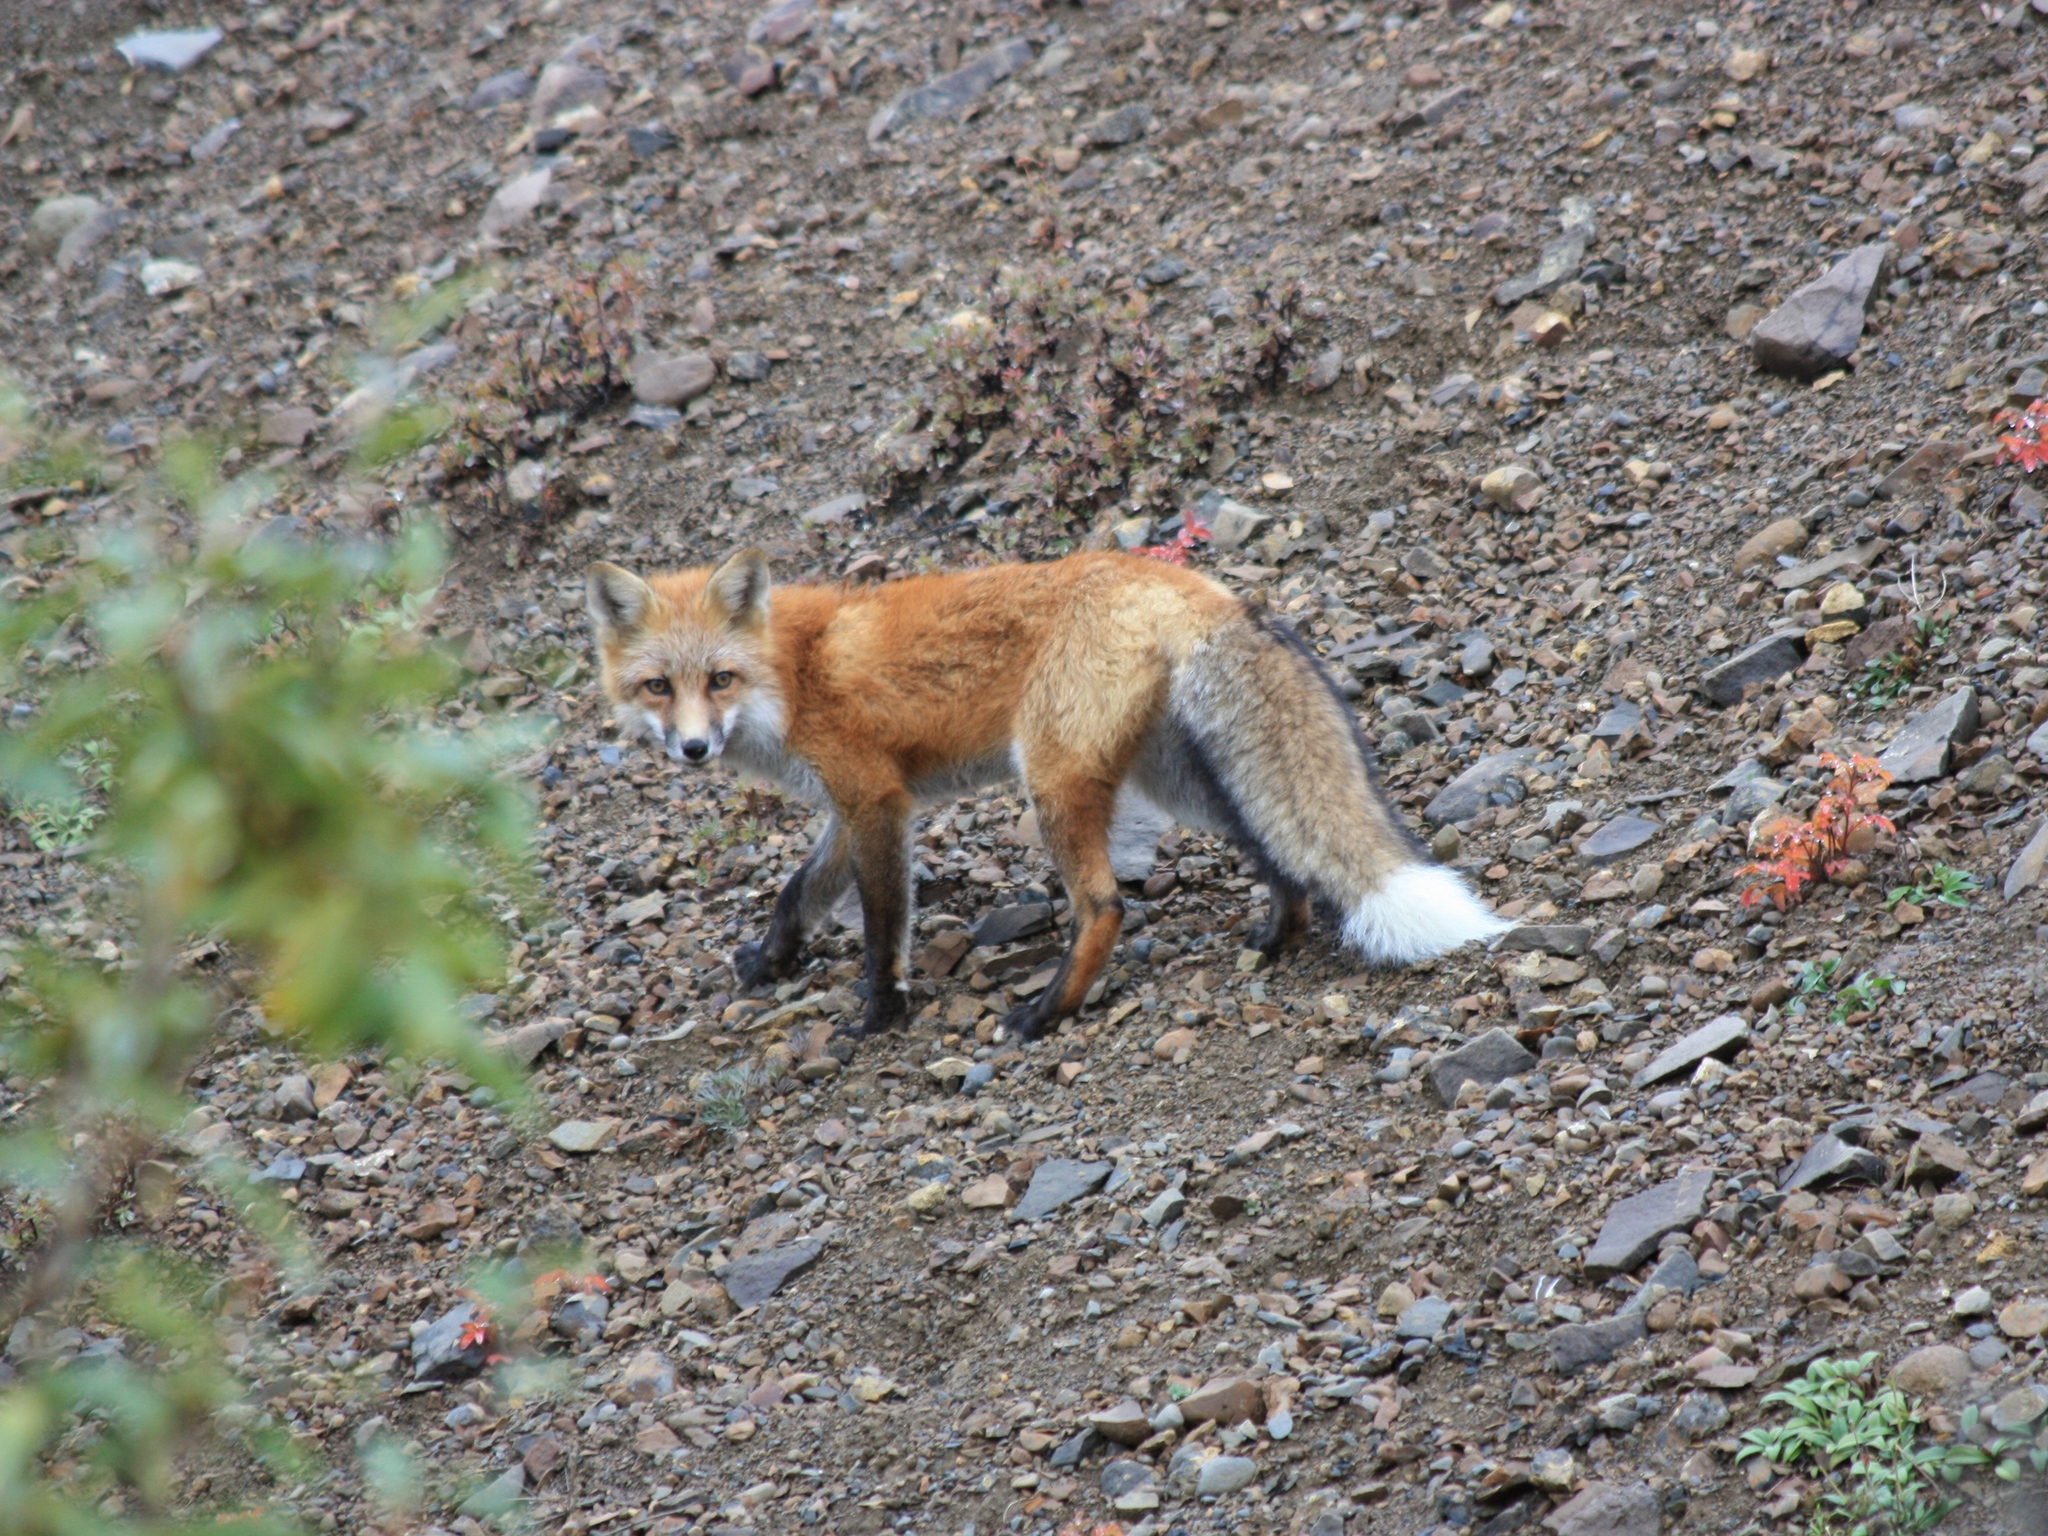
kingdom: Animalia
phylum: Chordata
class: Mammalia
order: Carnivora
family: Canidae
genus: Vulpes
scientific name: Vulpes vulpes
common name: Red fox
